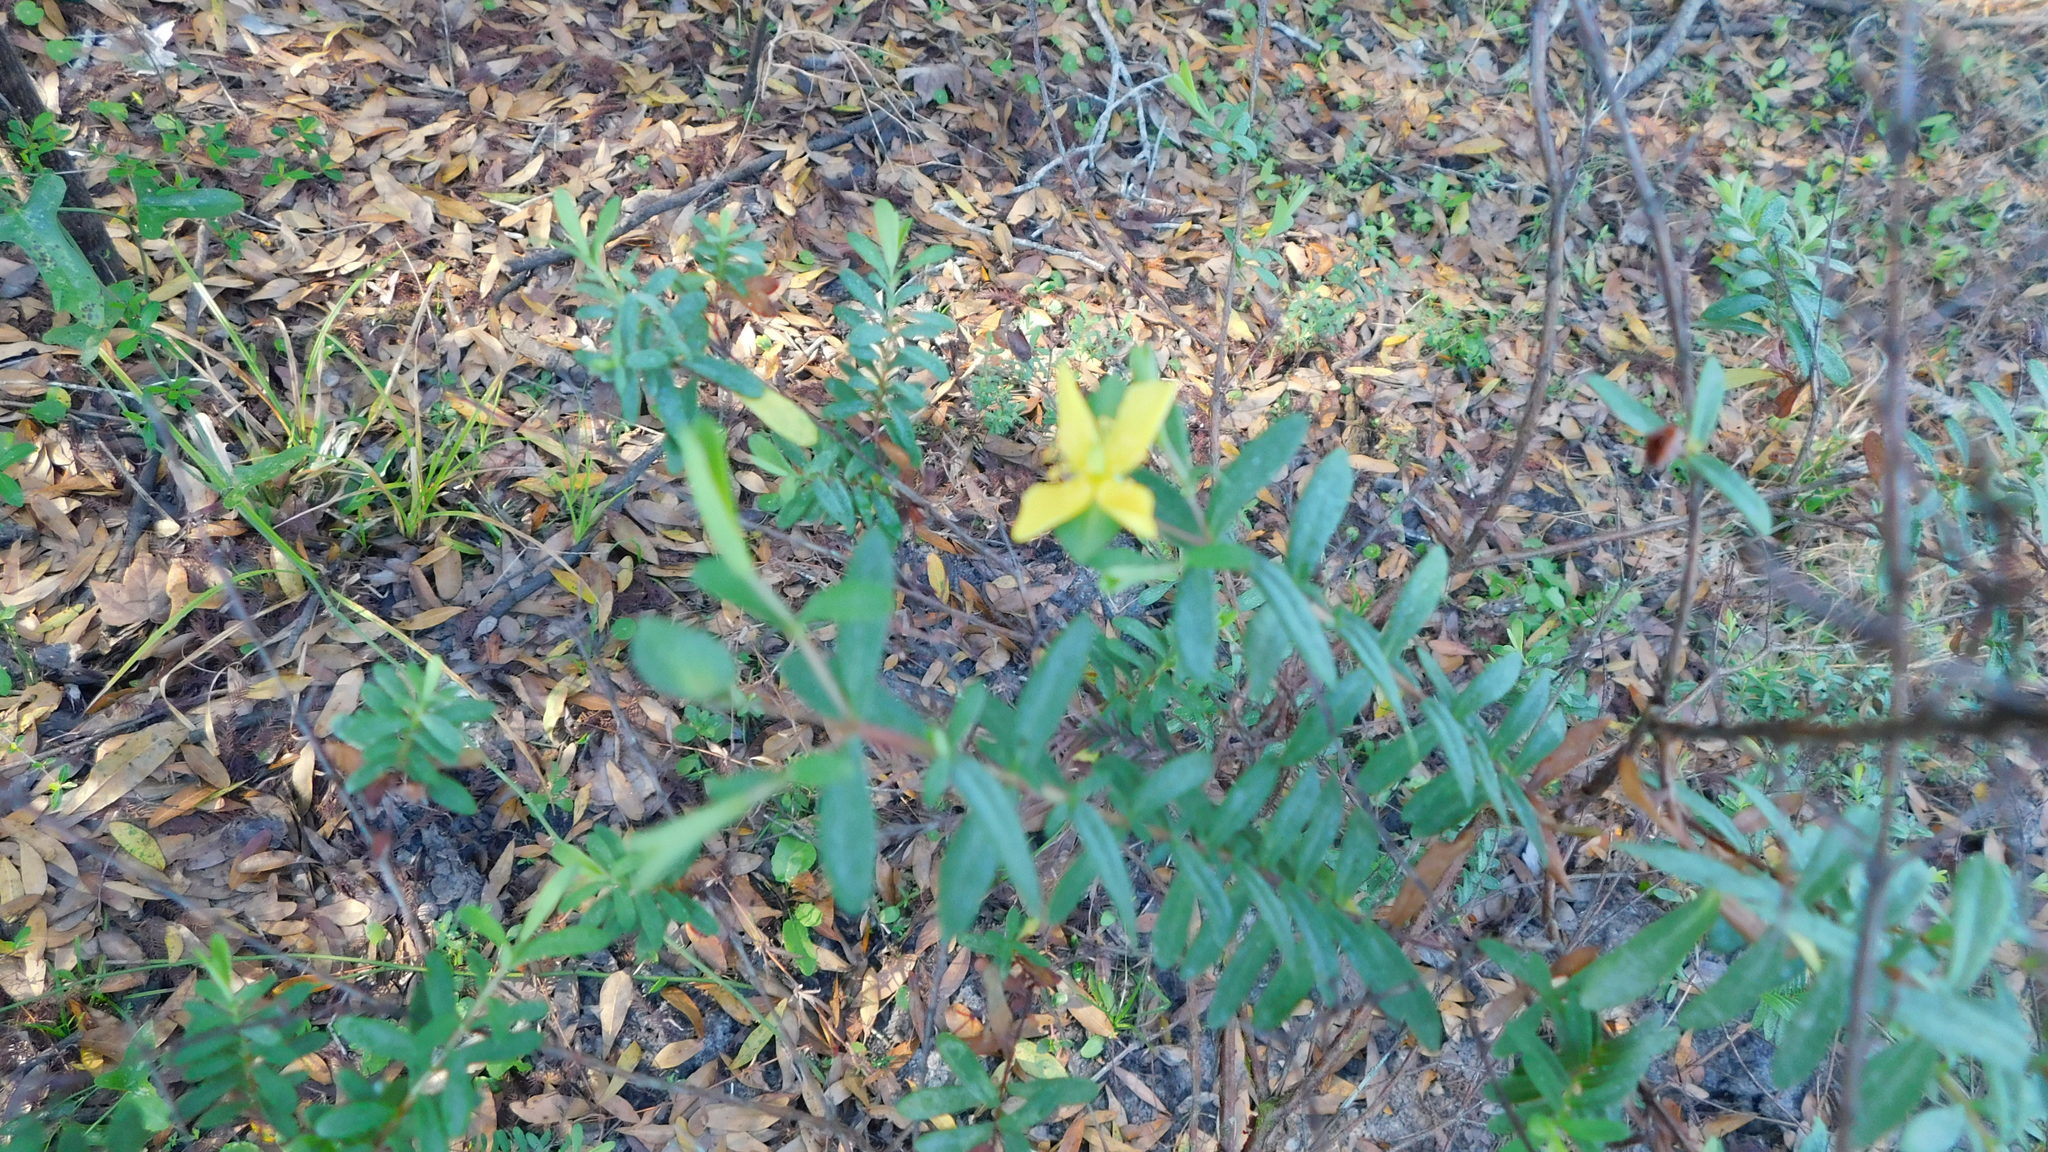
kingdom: Plantae
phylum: Tracheophyta
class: Magnoliopsida
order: Malpighiales
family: Hypericaceae
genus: Hypericum
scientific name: Hypericum hypericoides
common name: St. andrew's cross
